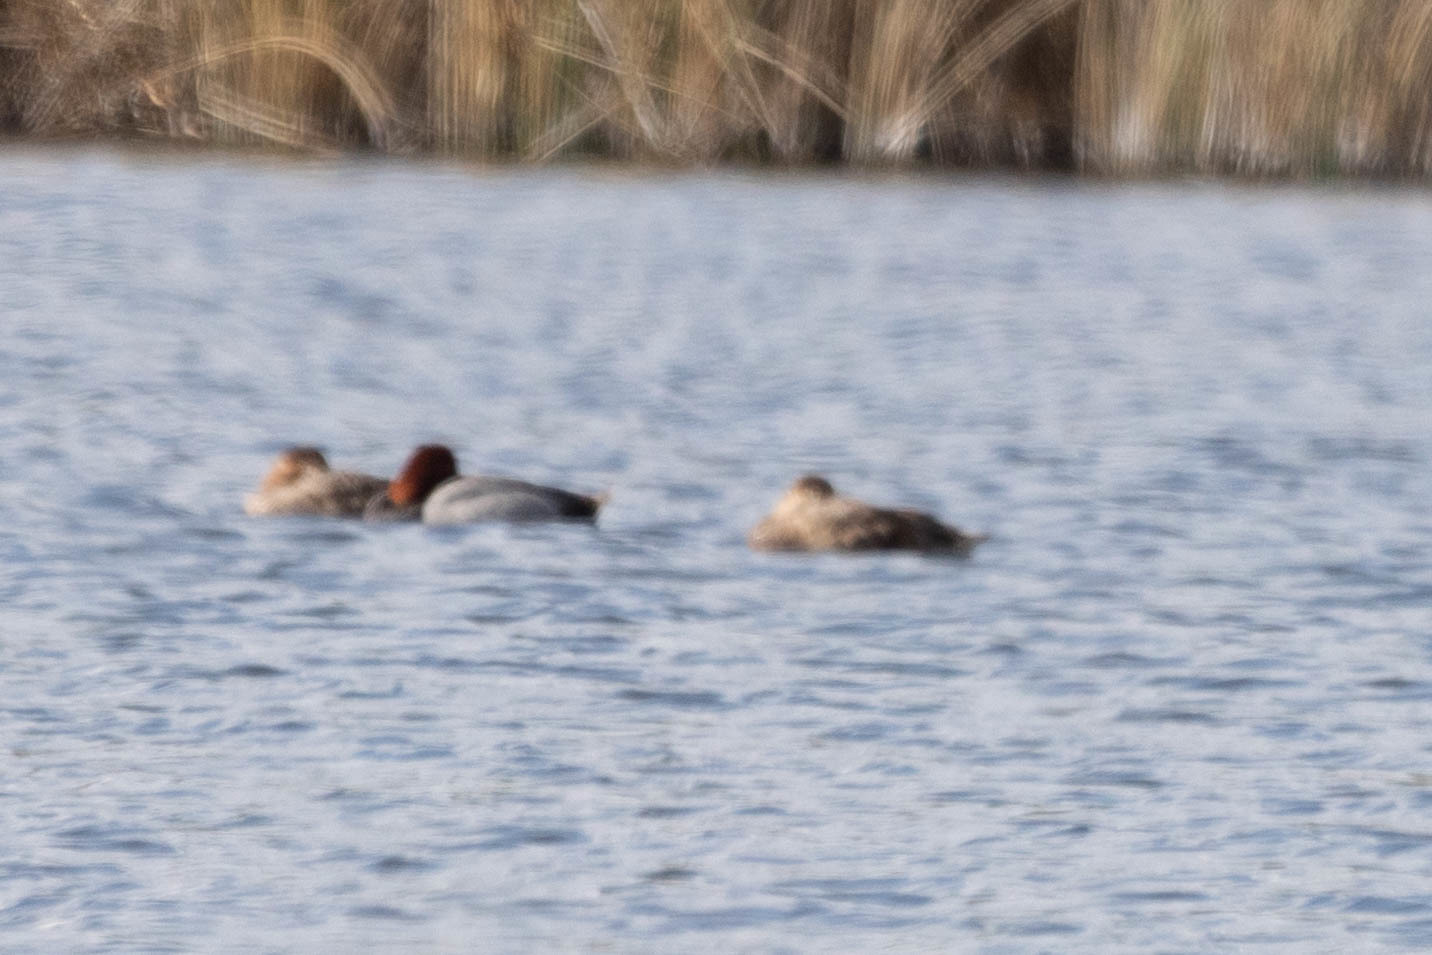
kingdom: Animalia
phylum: Chordata
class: Aves
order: Anseriformes
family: Anatidae
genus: Aythya
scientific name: Aythya americana
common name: Redhead
